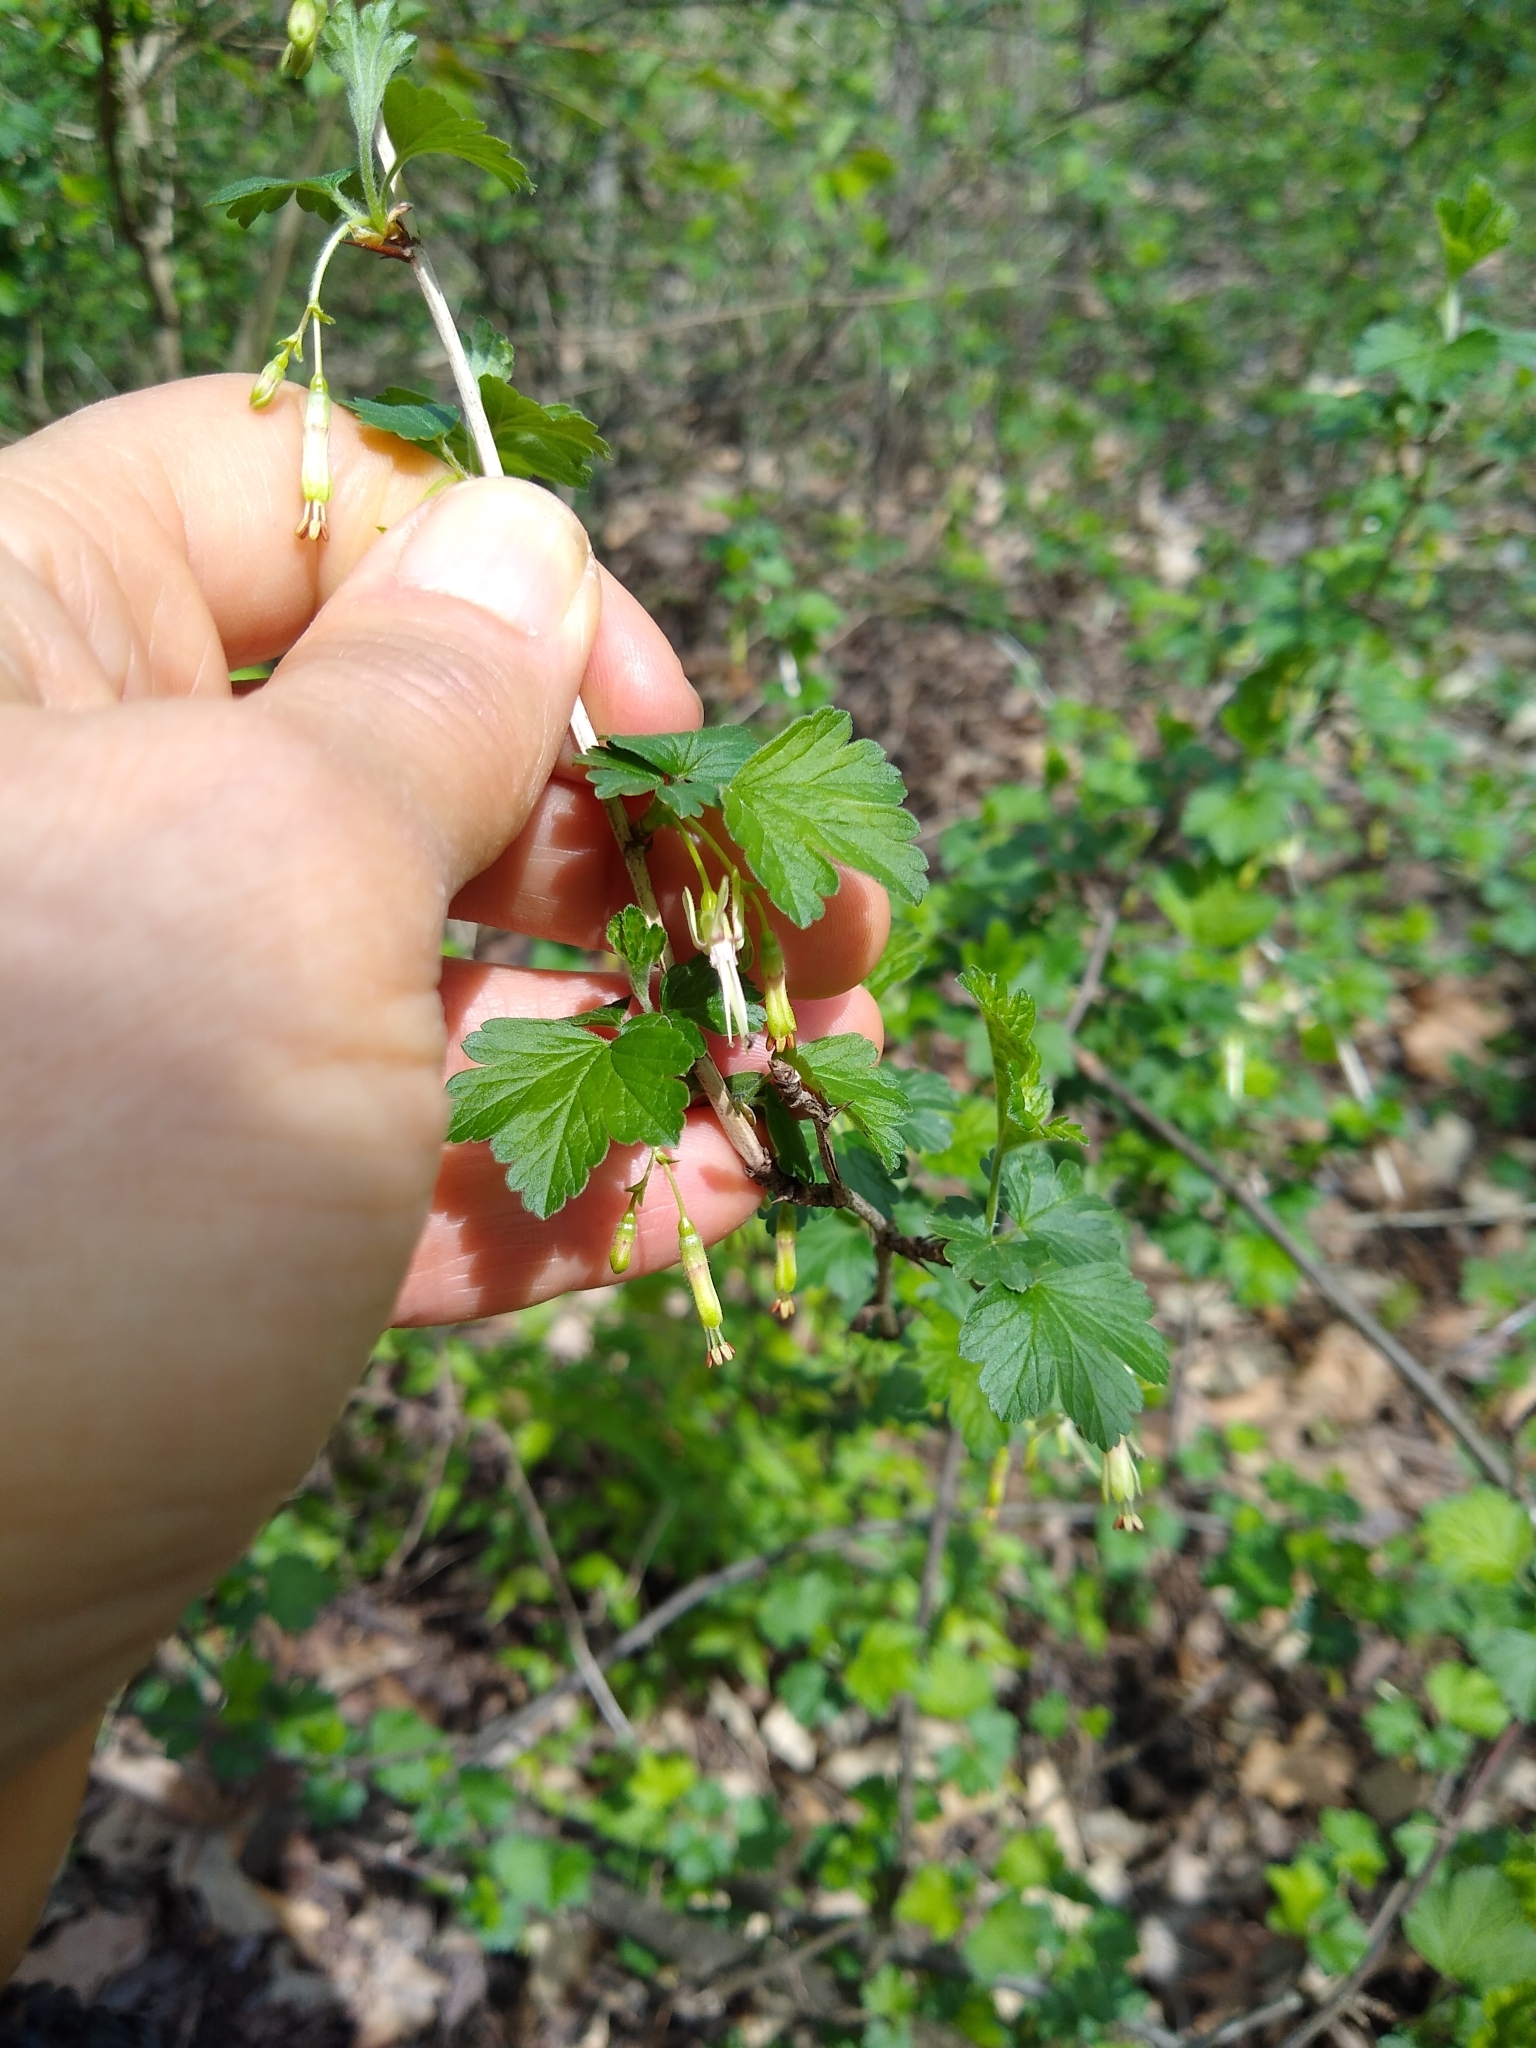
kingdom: Plantae
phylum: Tracheophyta
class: Magnoliopsida
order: Saxifragales
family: Grossulariaceae
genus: Ribes
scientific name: Ribes missouriense
